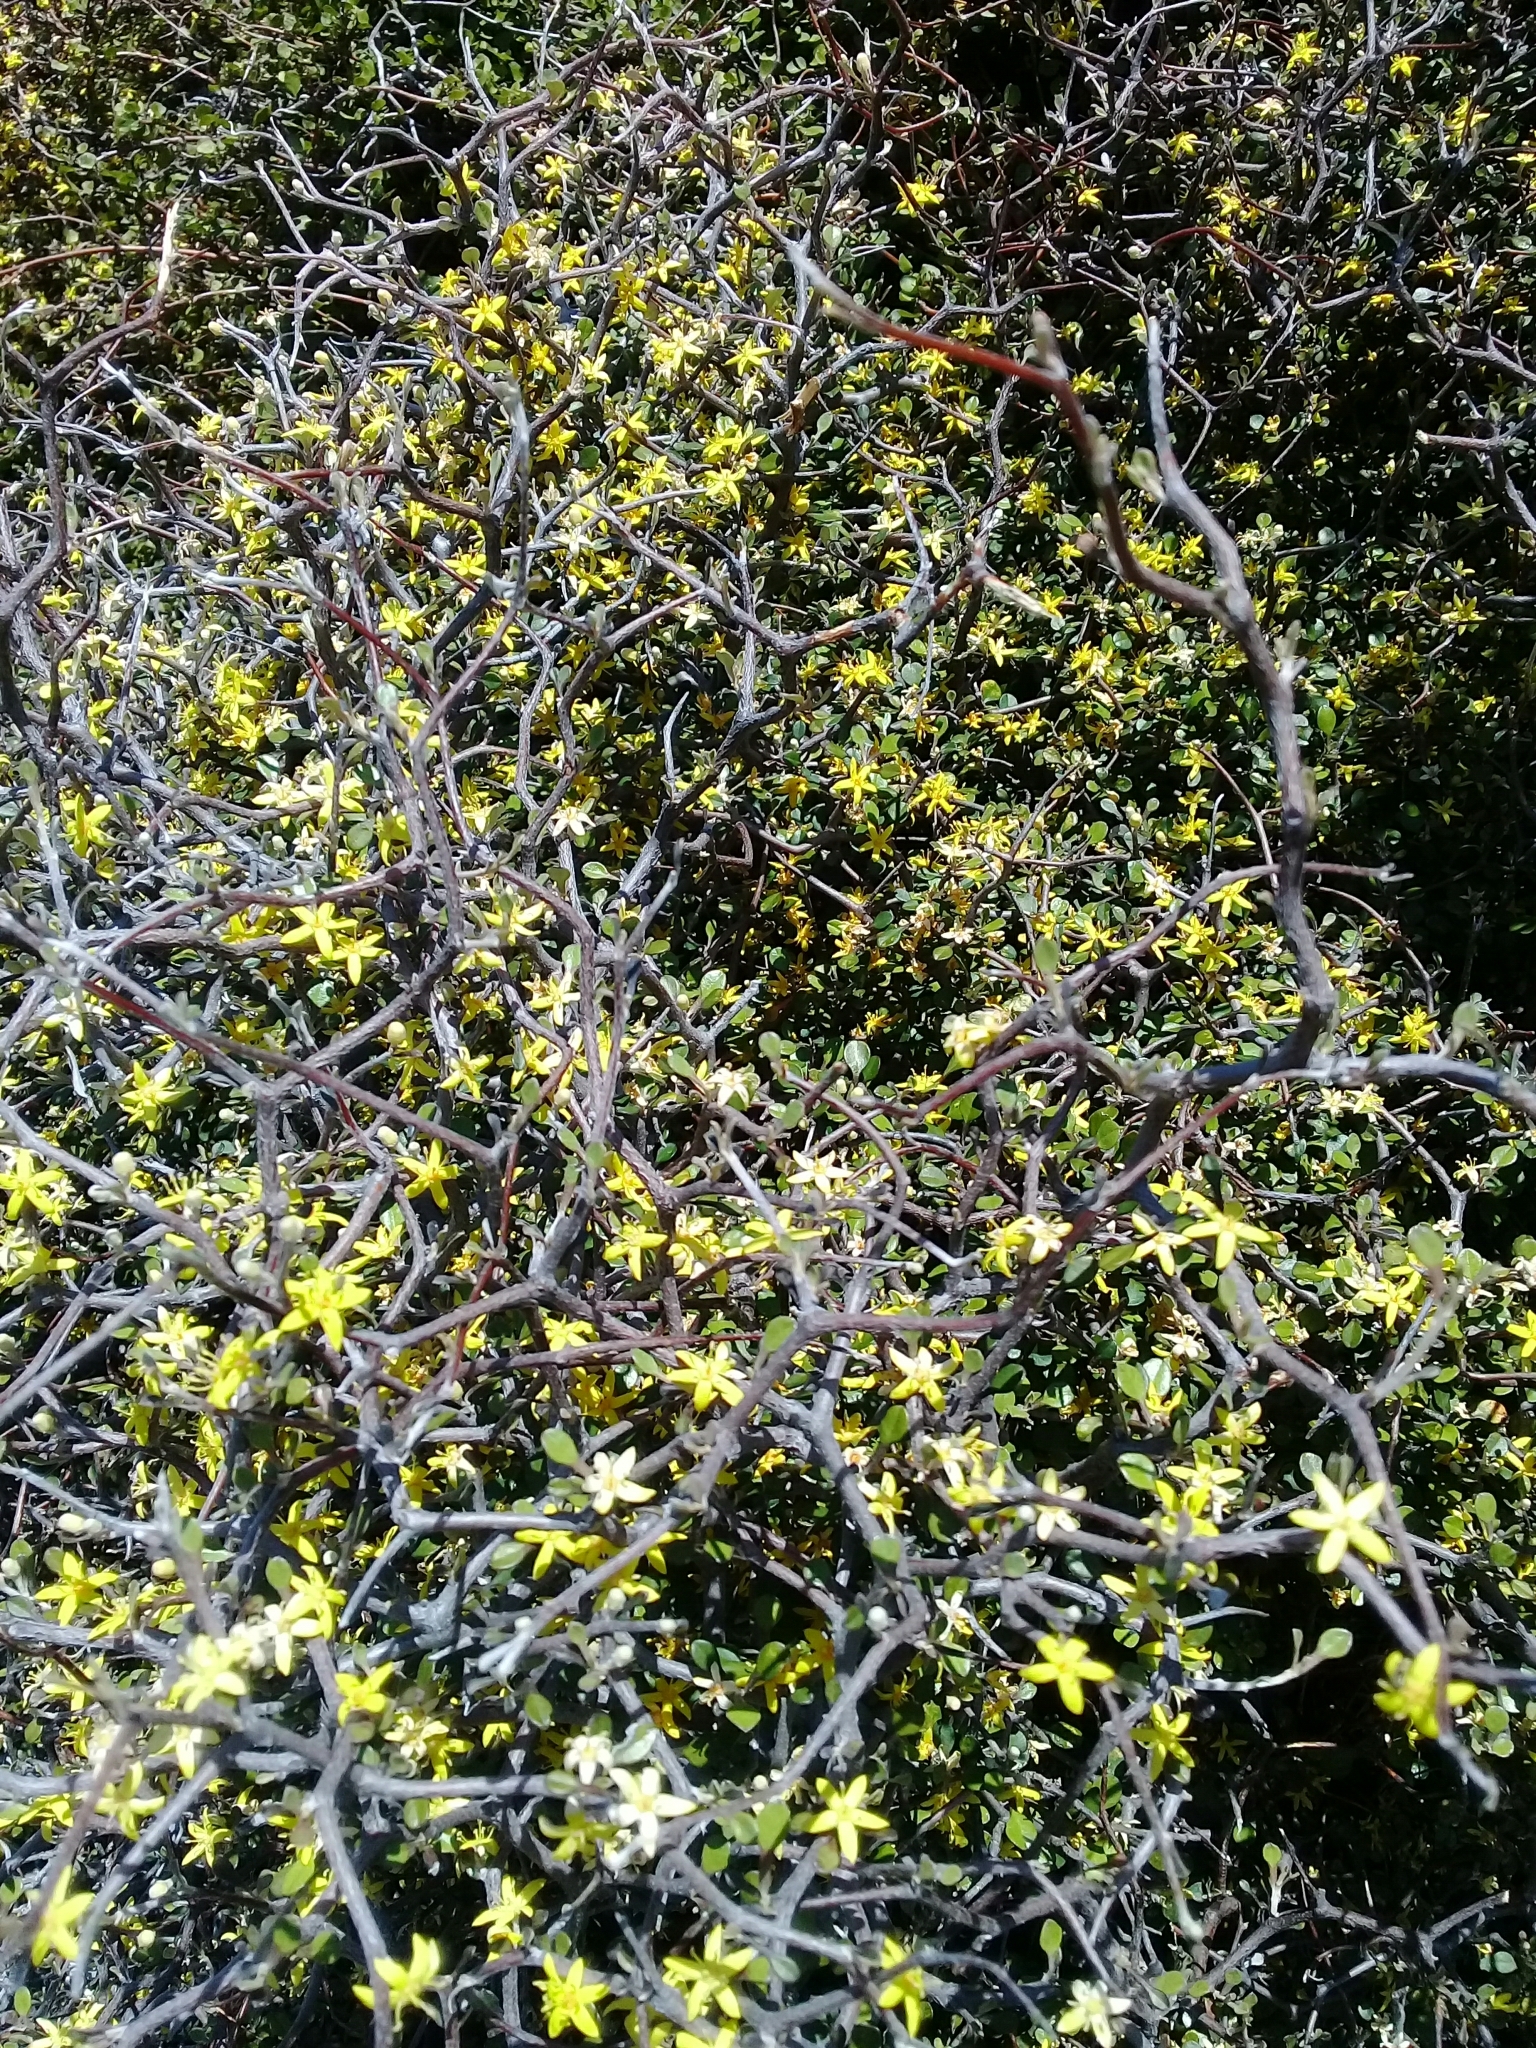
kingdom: Plantae
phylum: Tracheophyta
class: Magnoliopsida
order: Asterales
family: Argophyllaceae
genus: Corokia
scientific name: Corokia cotoneaster
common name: Wire nettingbush
